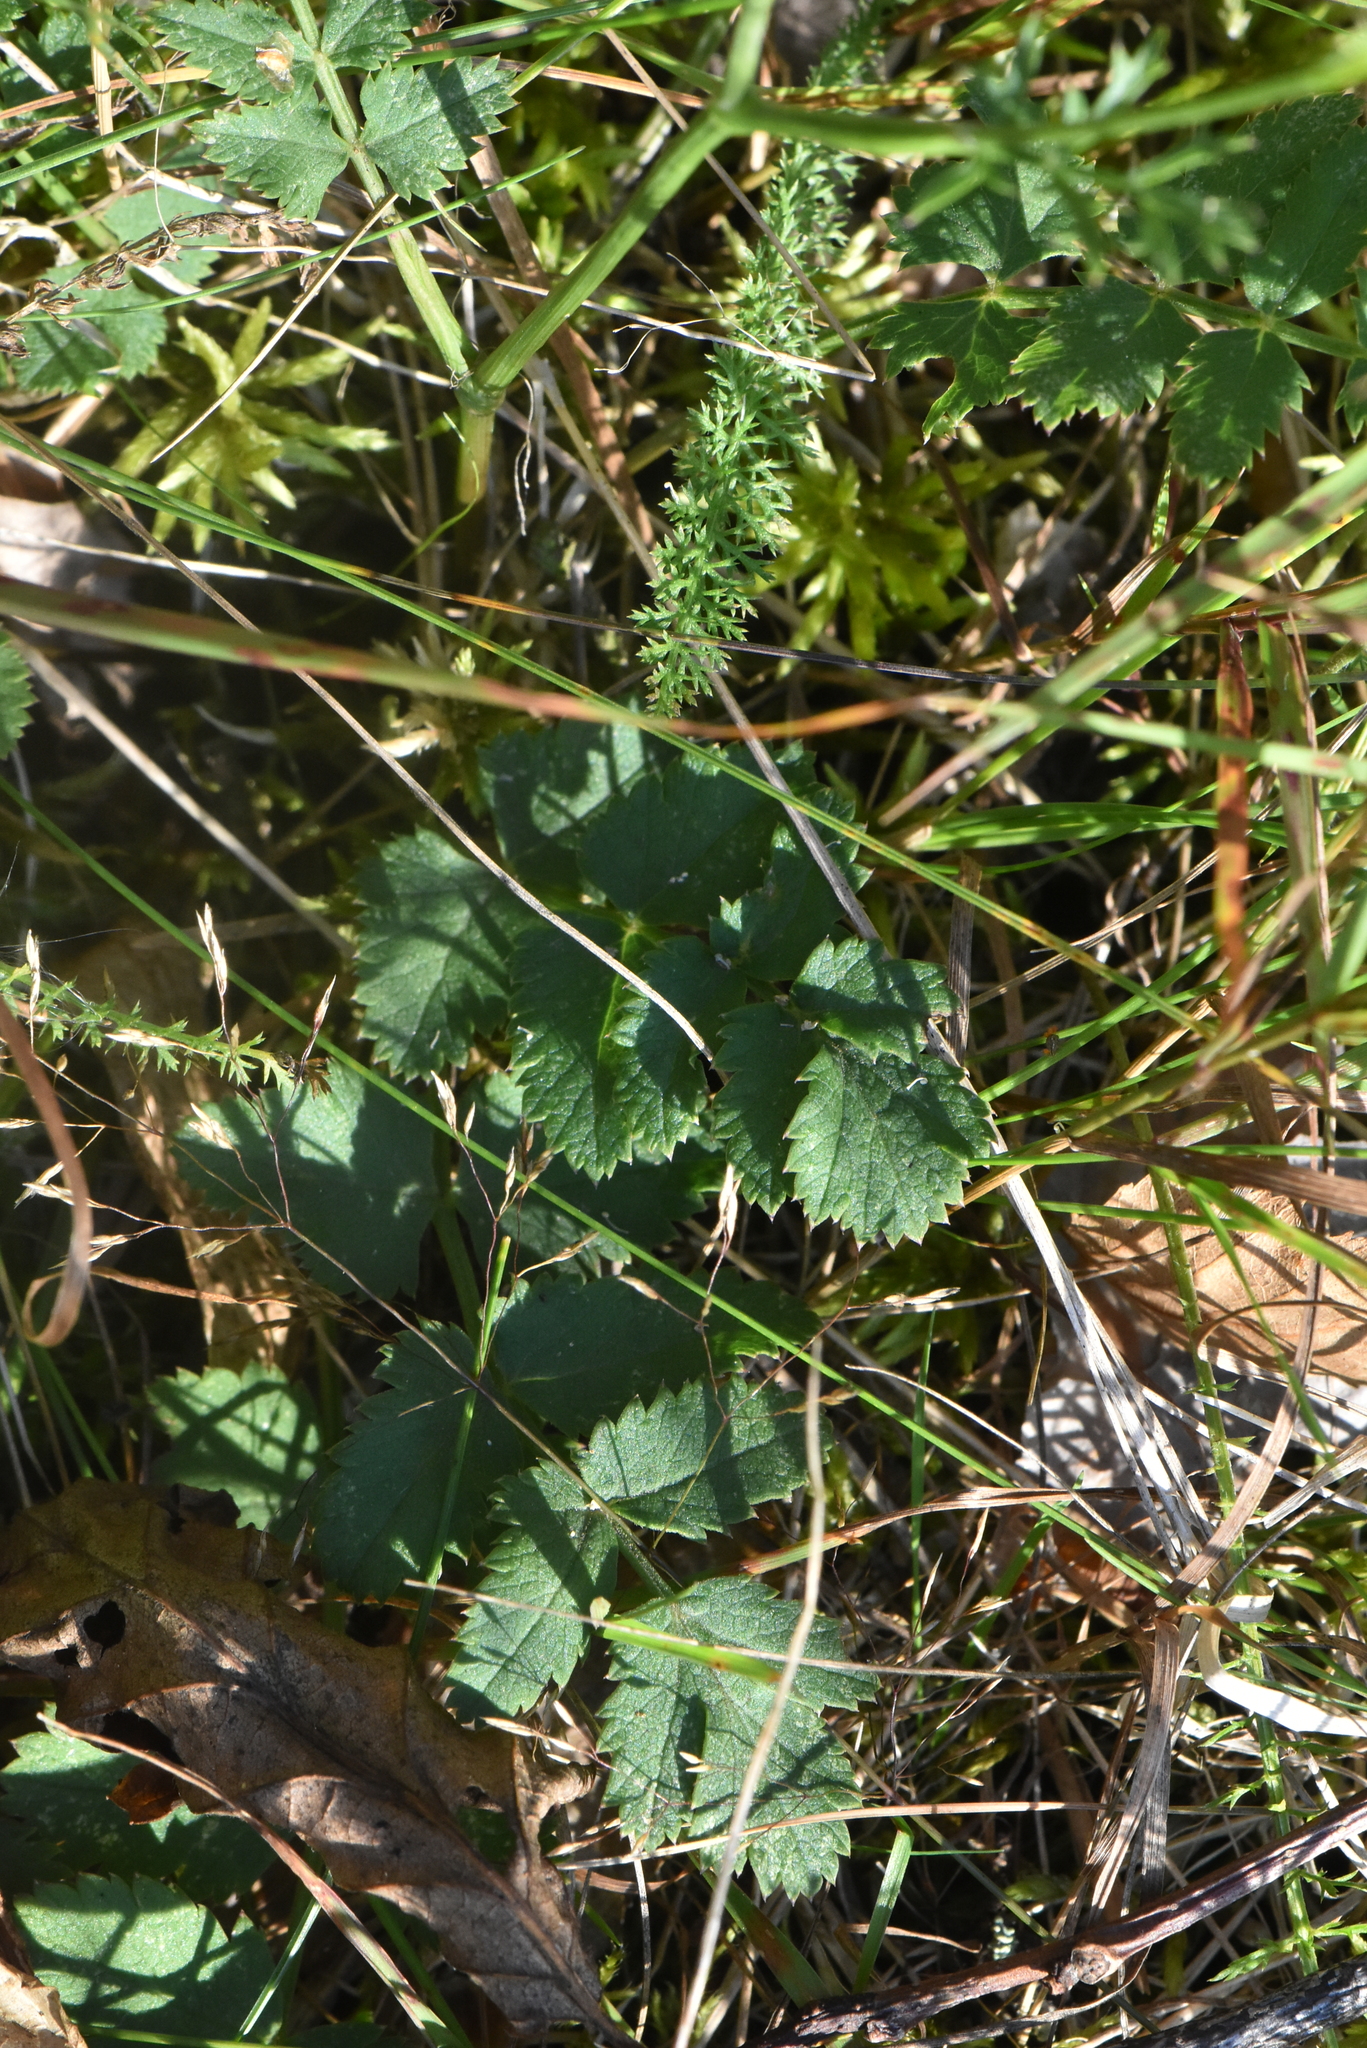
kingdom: Plantae
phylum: Tracheophyta
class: Magnoliopsida
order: Apiales
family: Apiaceae
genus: Pimpinella
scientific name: Pimpinella saxifraga
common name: Burnet-saxifrage
